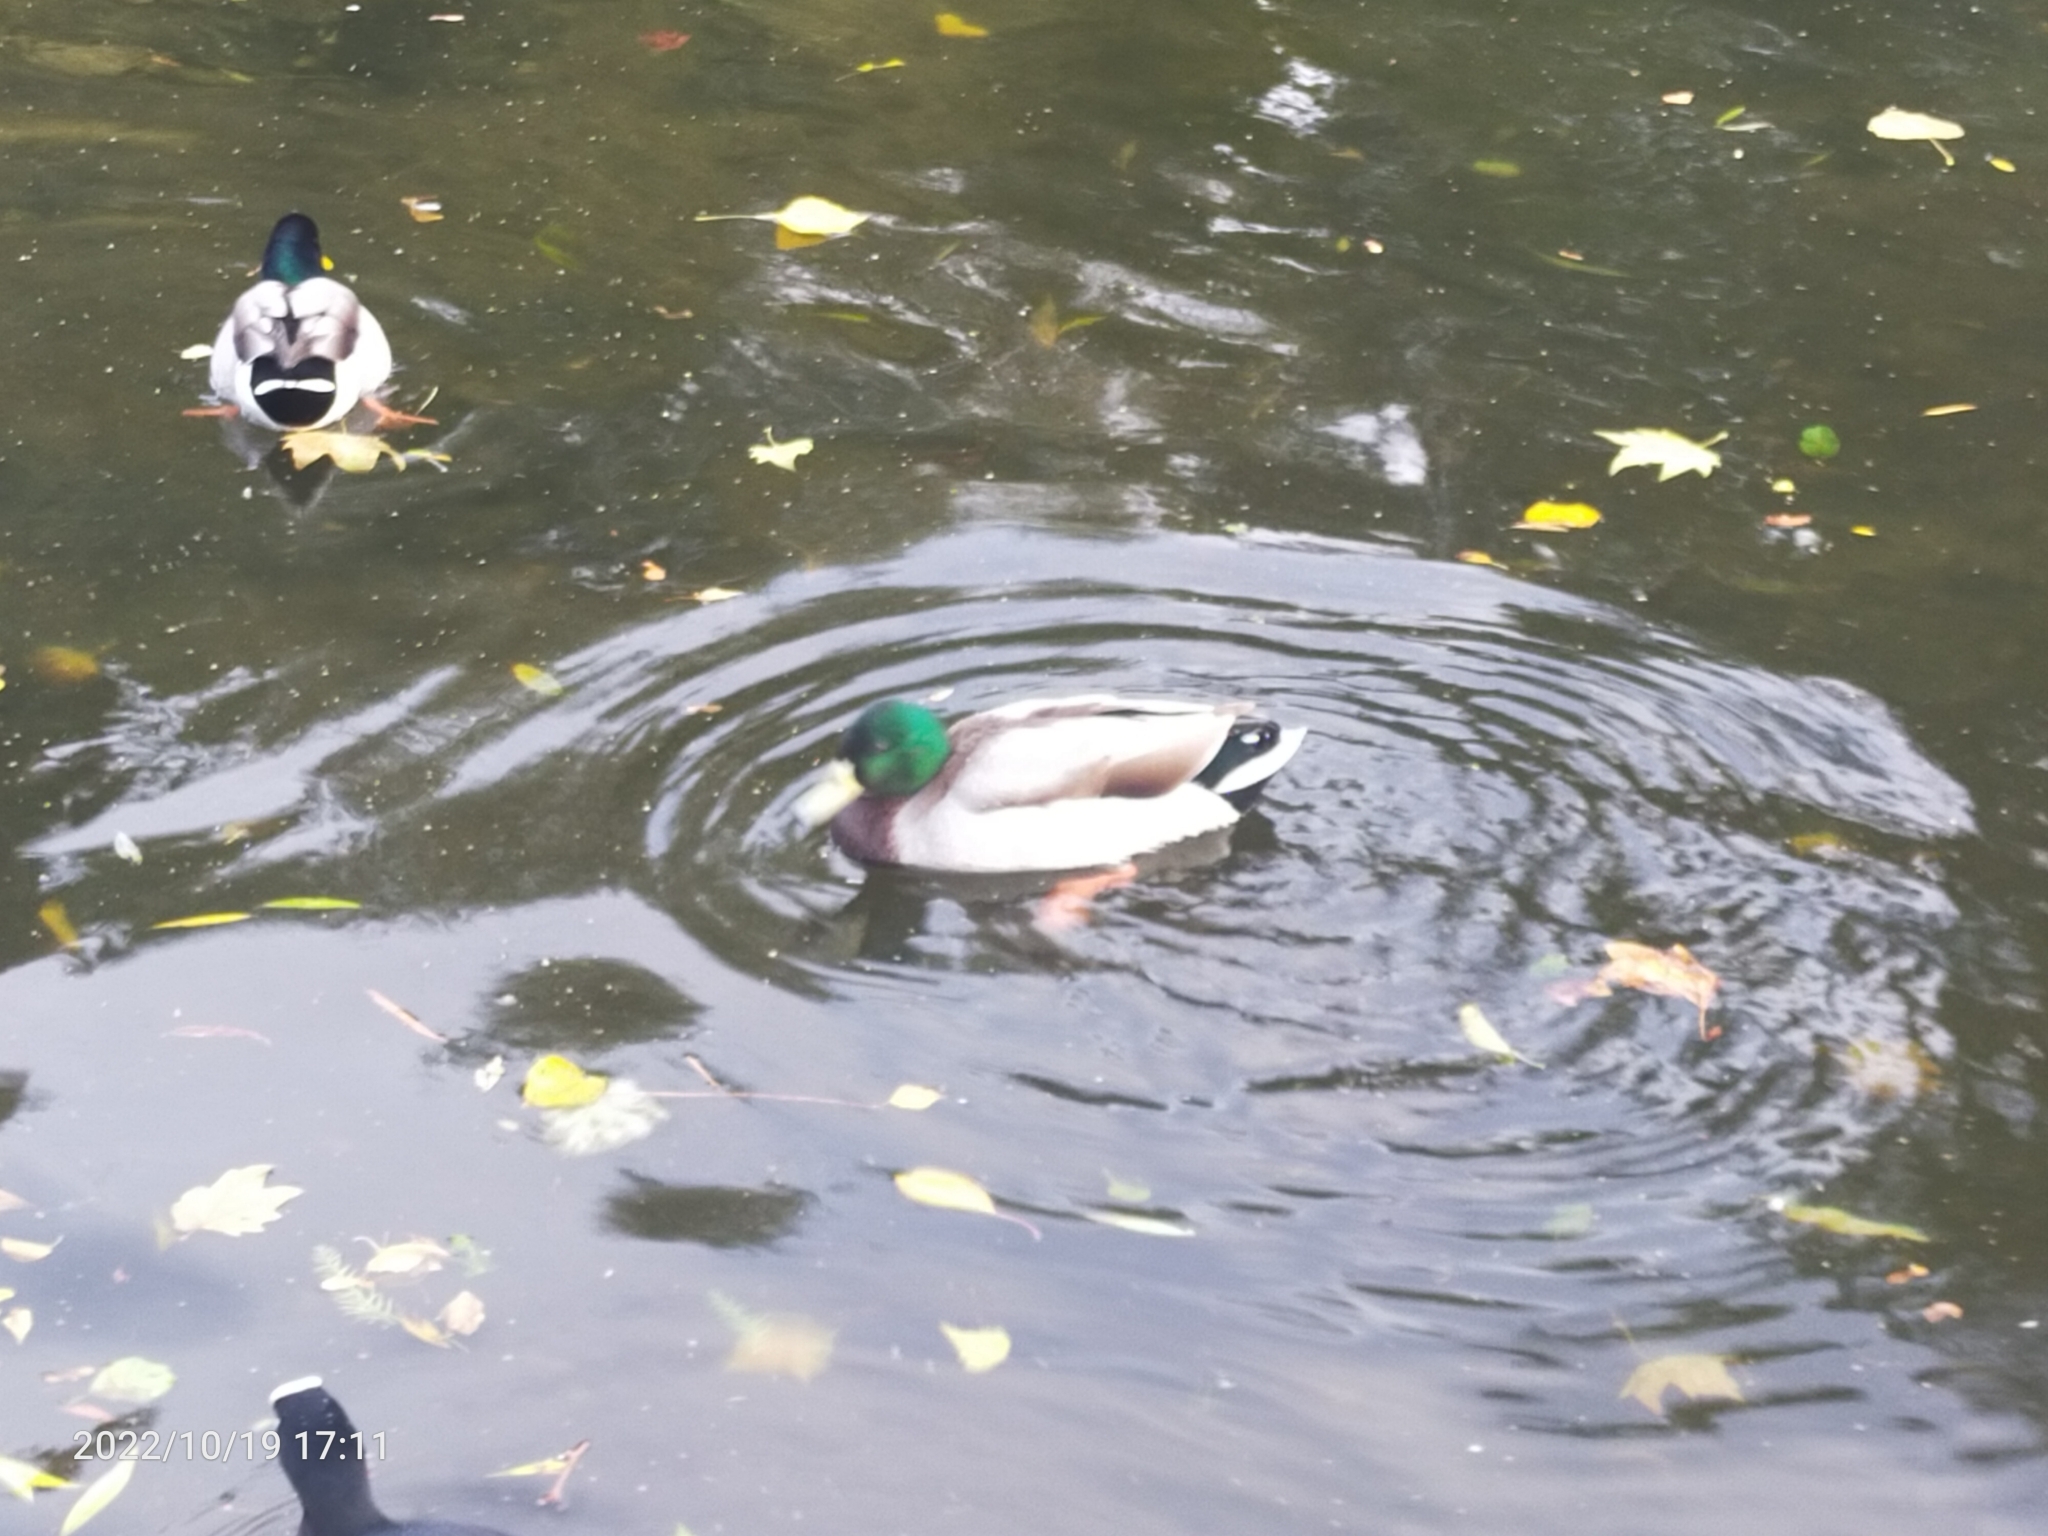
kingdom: Animalia
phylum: Chordata
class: Aves
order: Anseriformes
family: Anatidae
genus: Anas
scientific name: Anas platyrhynchos
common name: Mallard
